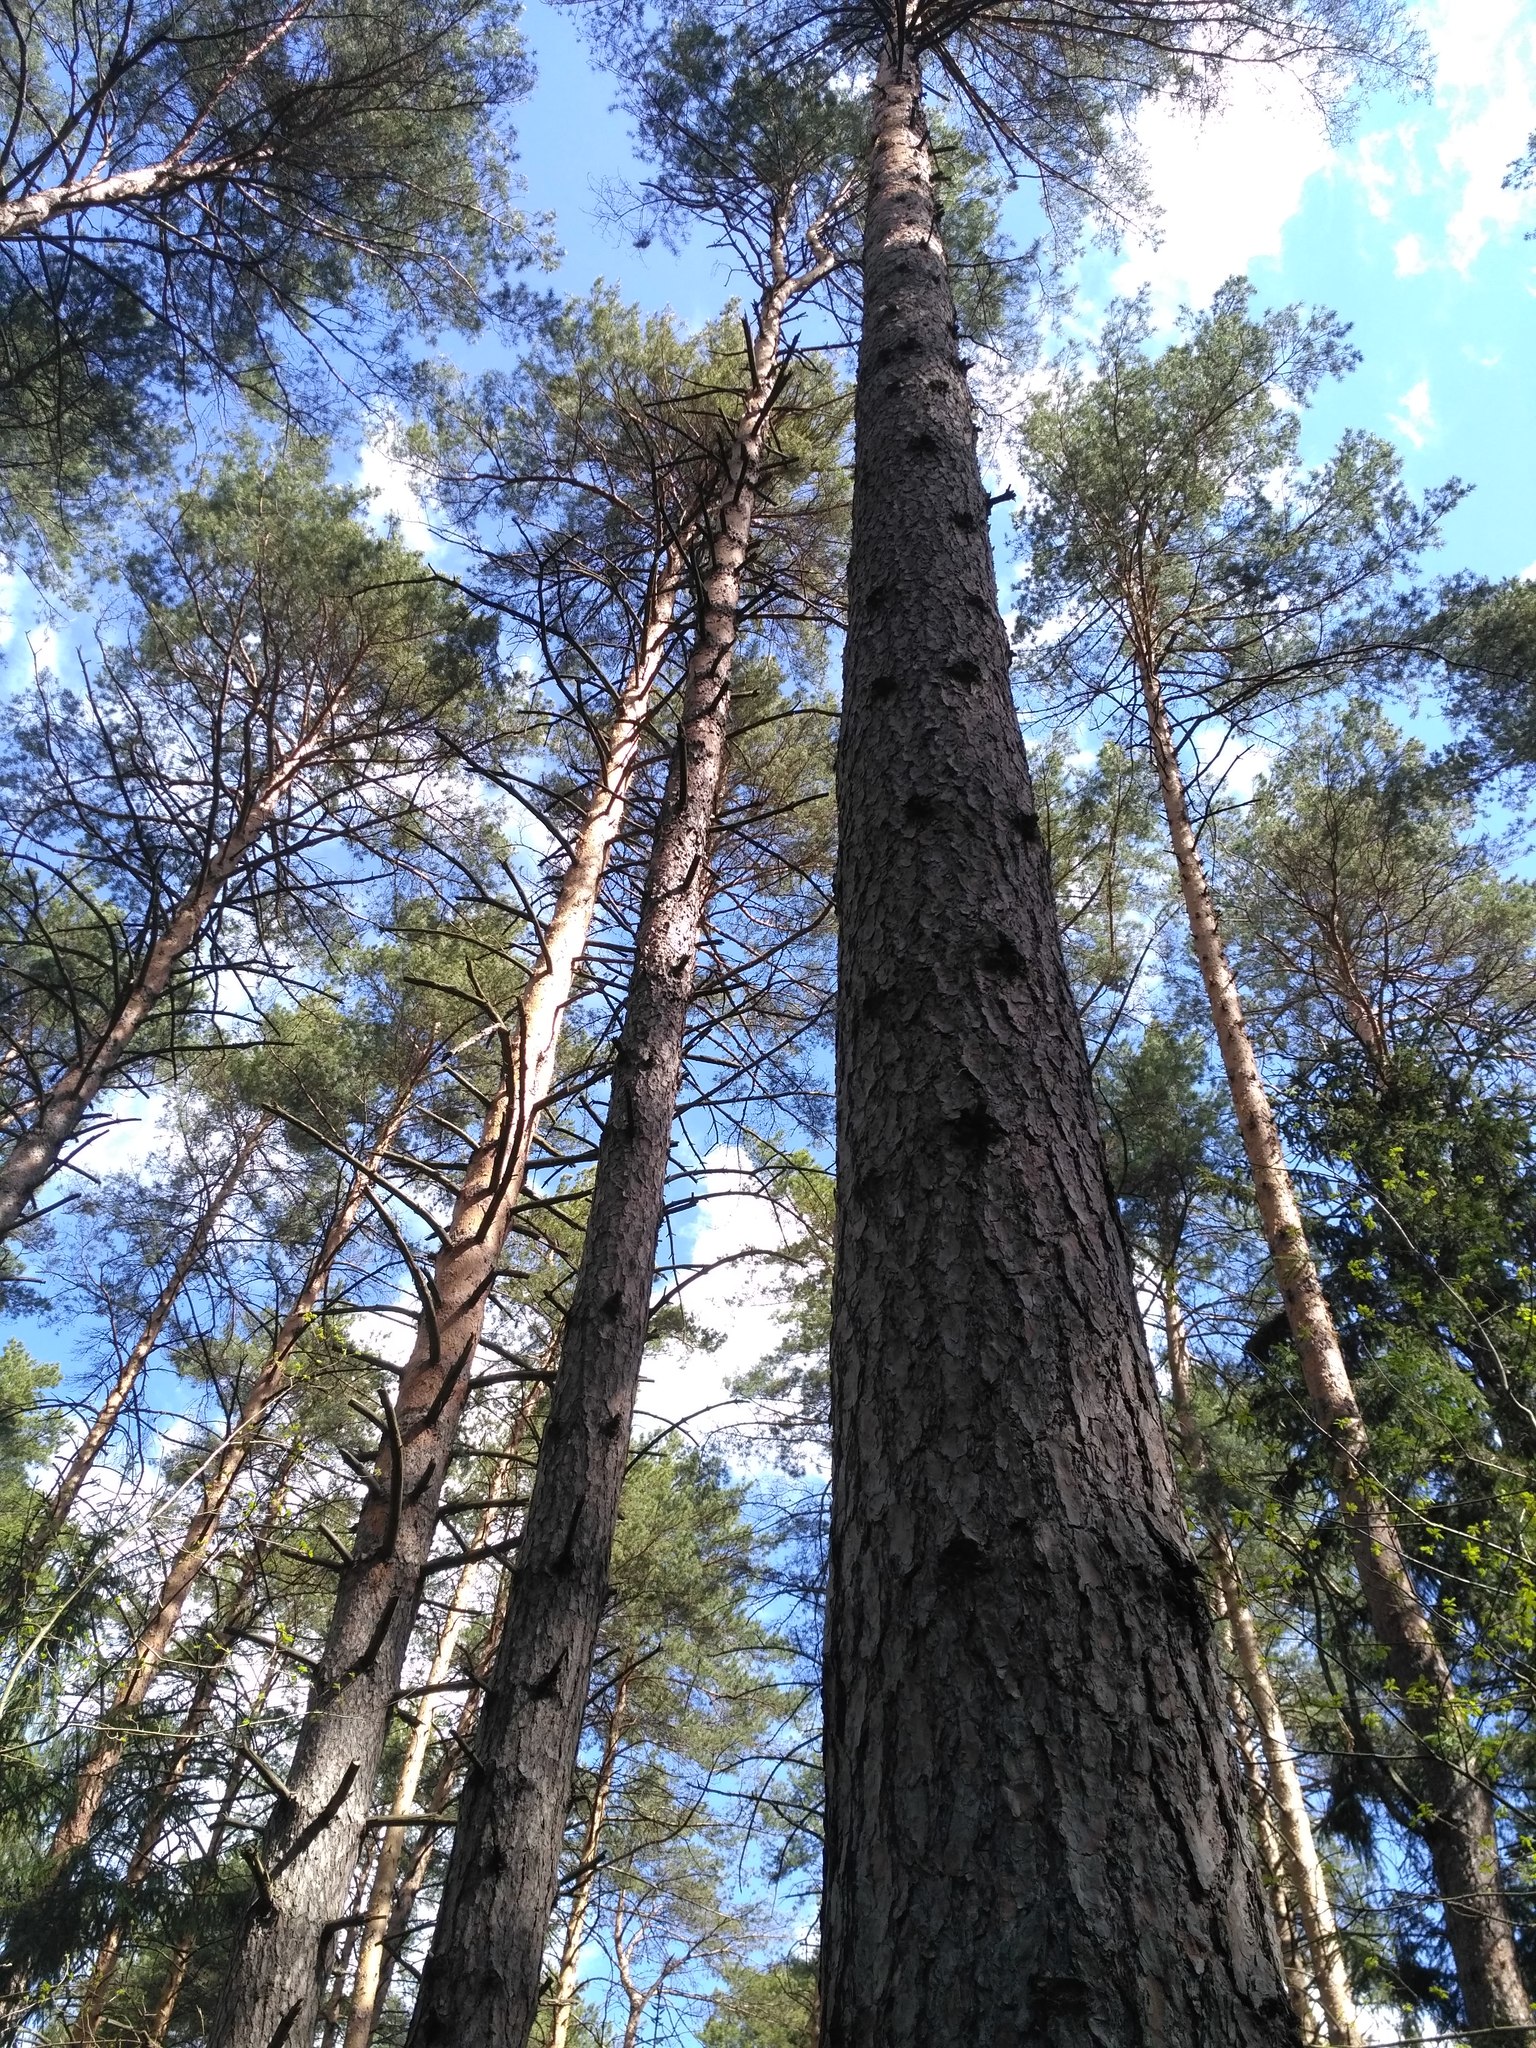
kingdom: Plantae
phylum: Tracheophyta
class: Pinopsida
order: Pinales
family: Pinaceae
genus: Pinus
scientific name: Pinus sylvestris
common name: Scots pine
